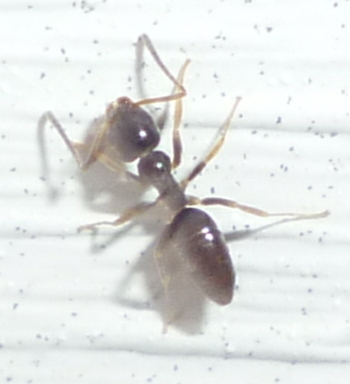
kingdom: Animalia
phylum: Arthropoda
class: Insecta
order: Hymenoptera
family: Formicidae
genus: Tapinoma
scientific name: Tapinoma sessile
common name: Odorous house ant
